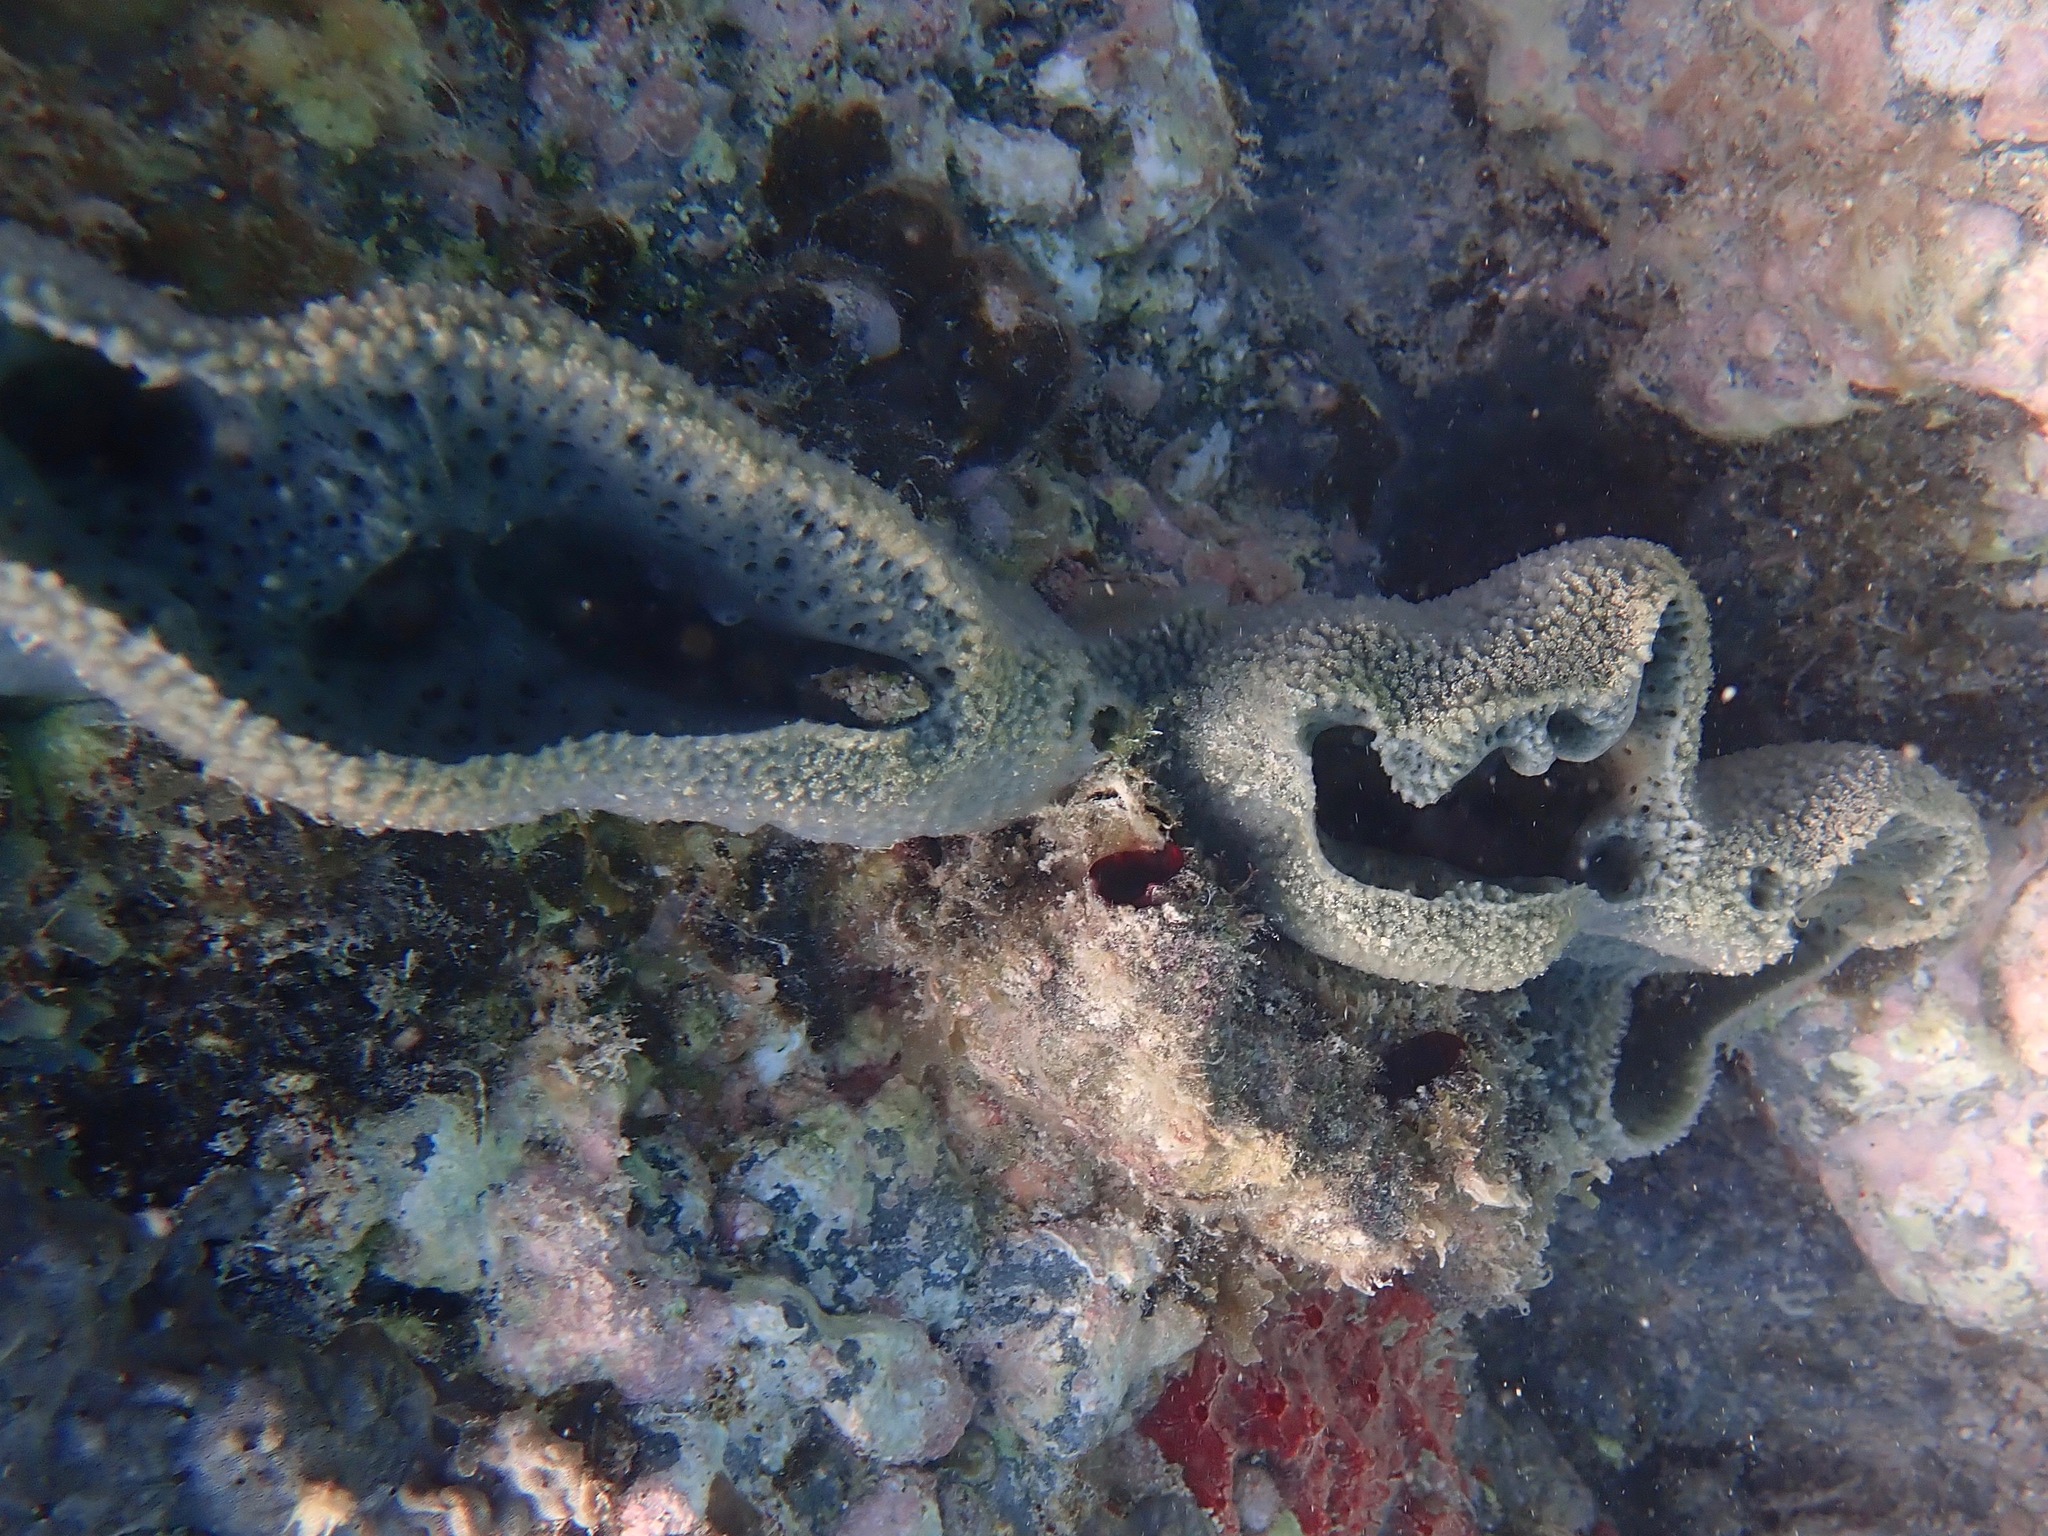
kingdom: Animalia
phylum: Porifera
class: Demospongiae
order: Haplosclerida
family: Niphatidae
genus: Niphates
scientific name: Niphates digitalis
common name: Pink vase sponge
